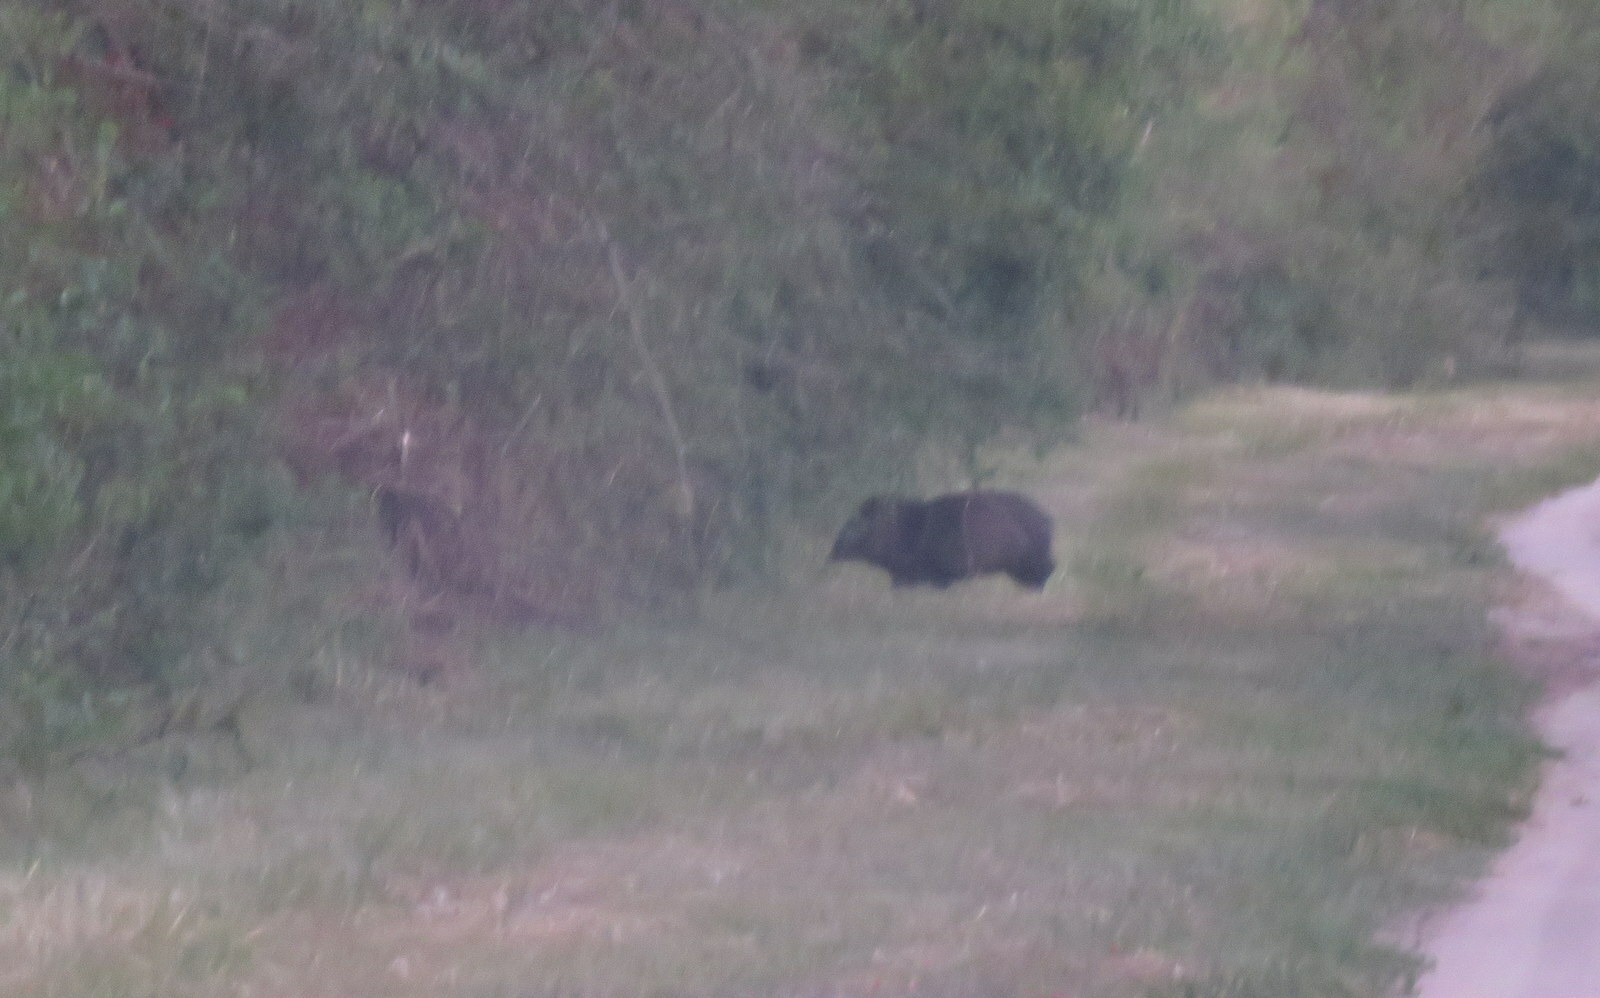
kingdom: Animalia
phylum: Chordata
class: Mammalia
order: Artiodactyla
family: Tayassuidae
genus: Pecari
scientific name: Pecari tajacu
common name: Collared peccary
